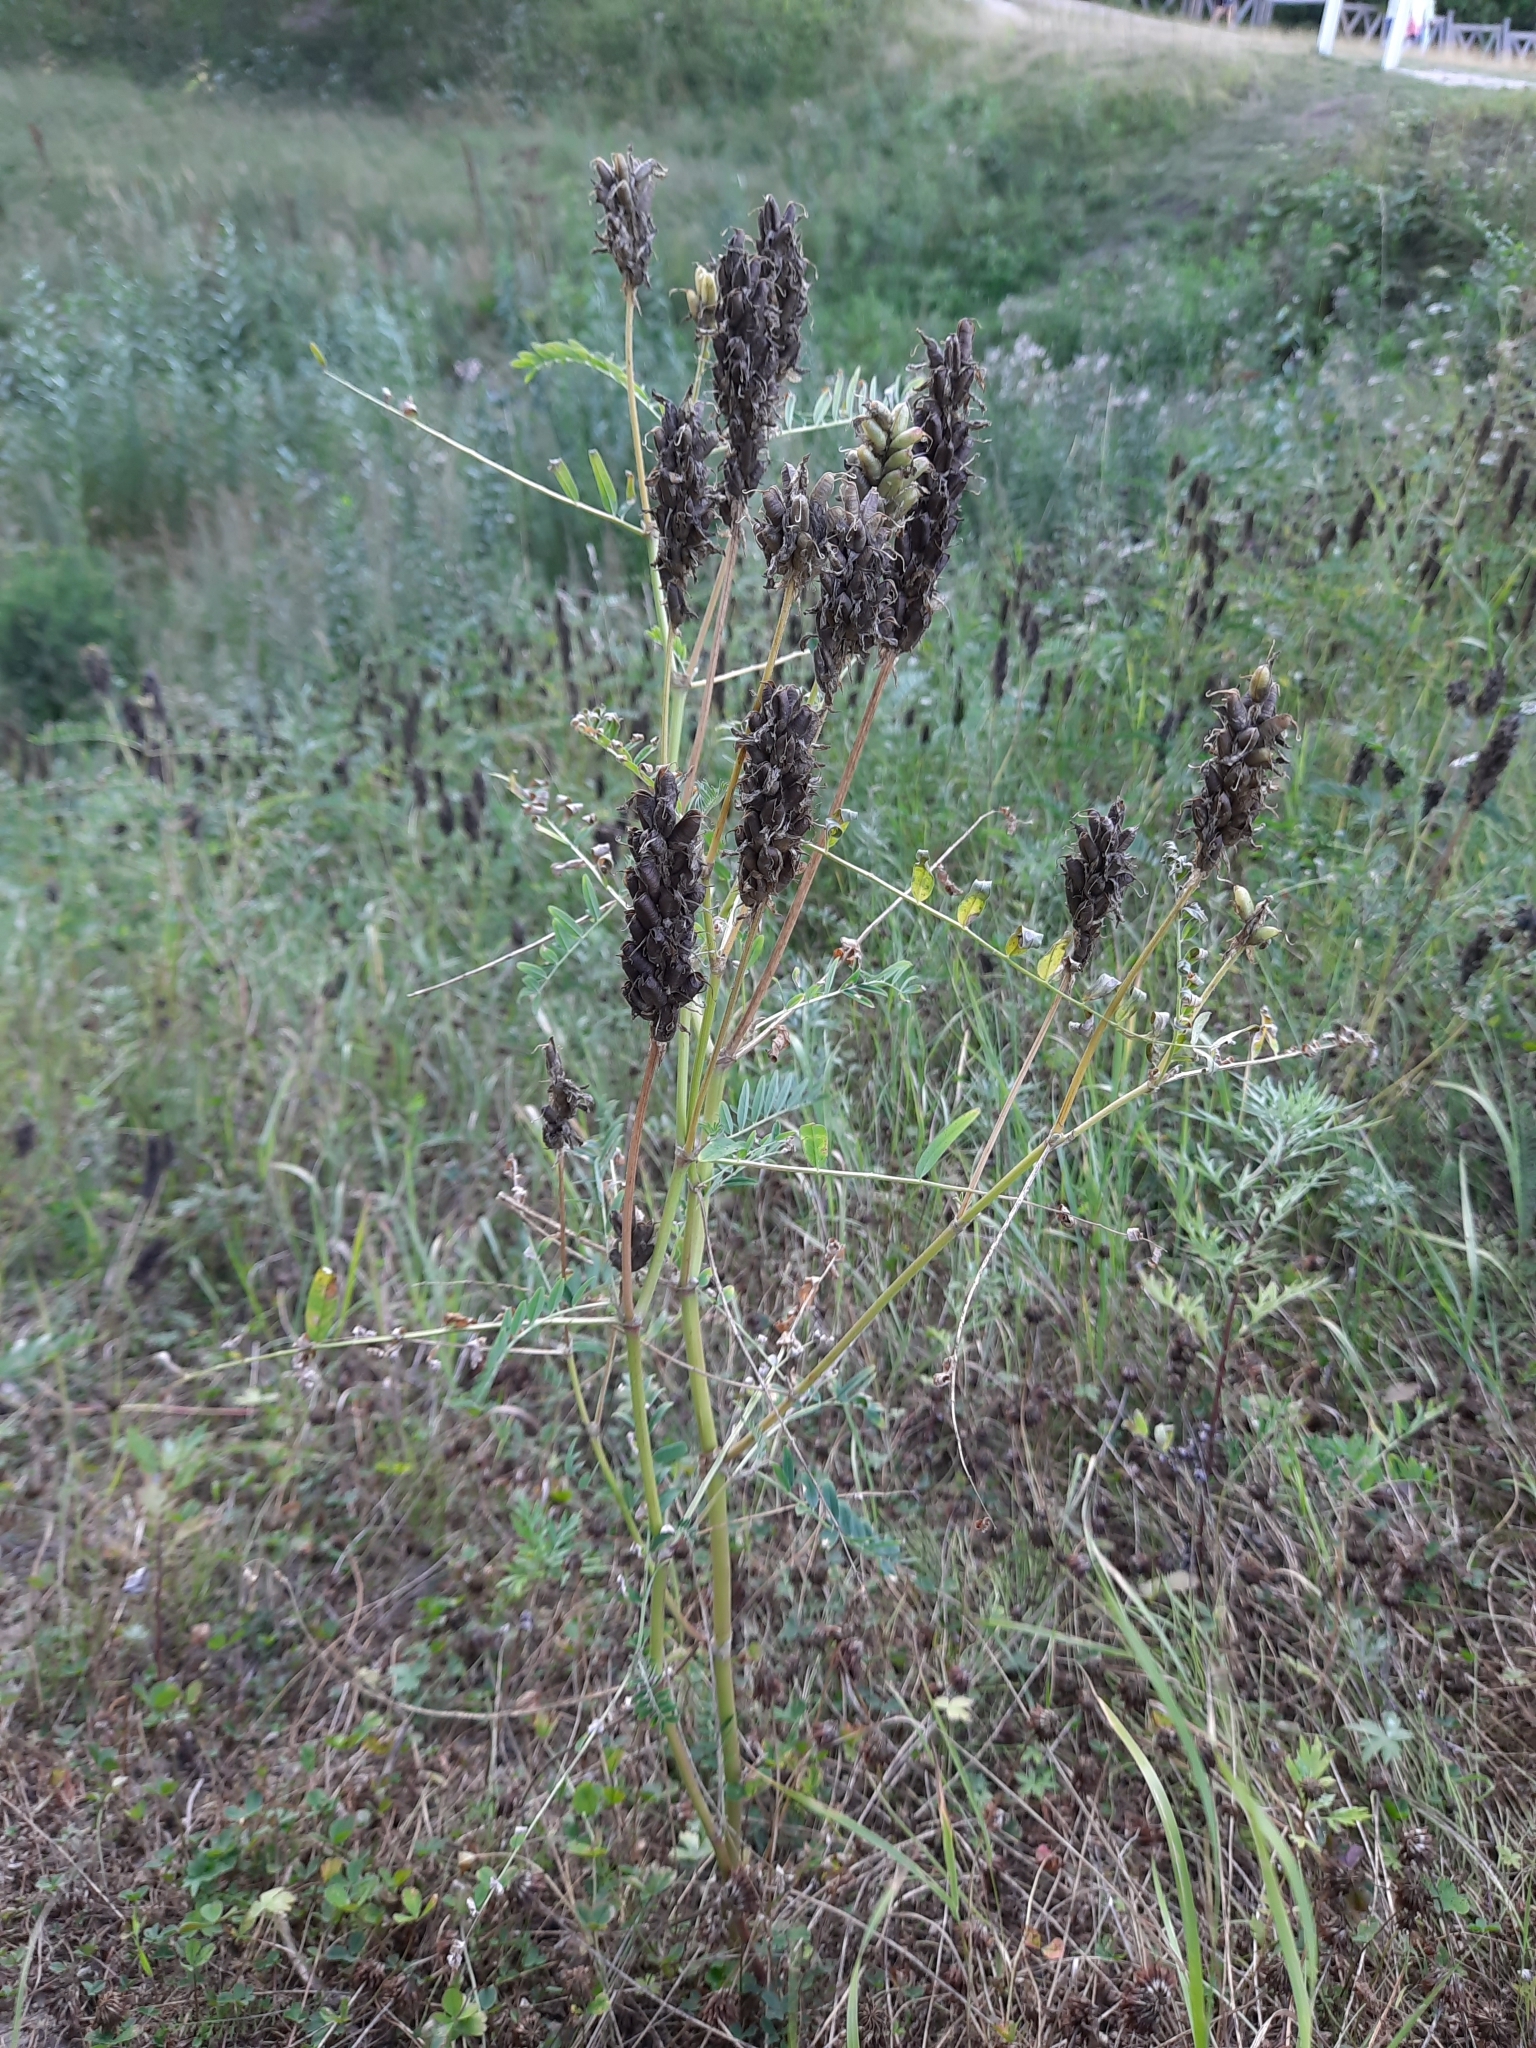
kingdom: Plantae
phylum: Tracheophyta
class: Magnoliopsida
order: Fabales
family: Fabaceae
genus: Astragalus
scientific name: Astragalus uliginosus
